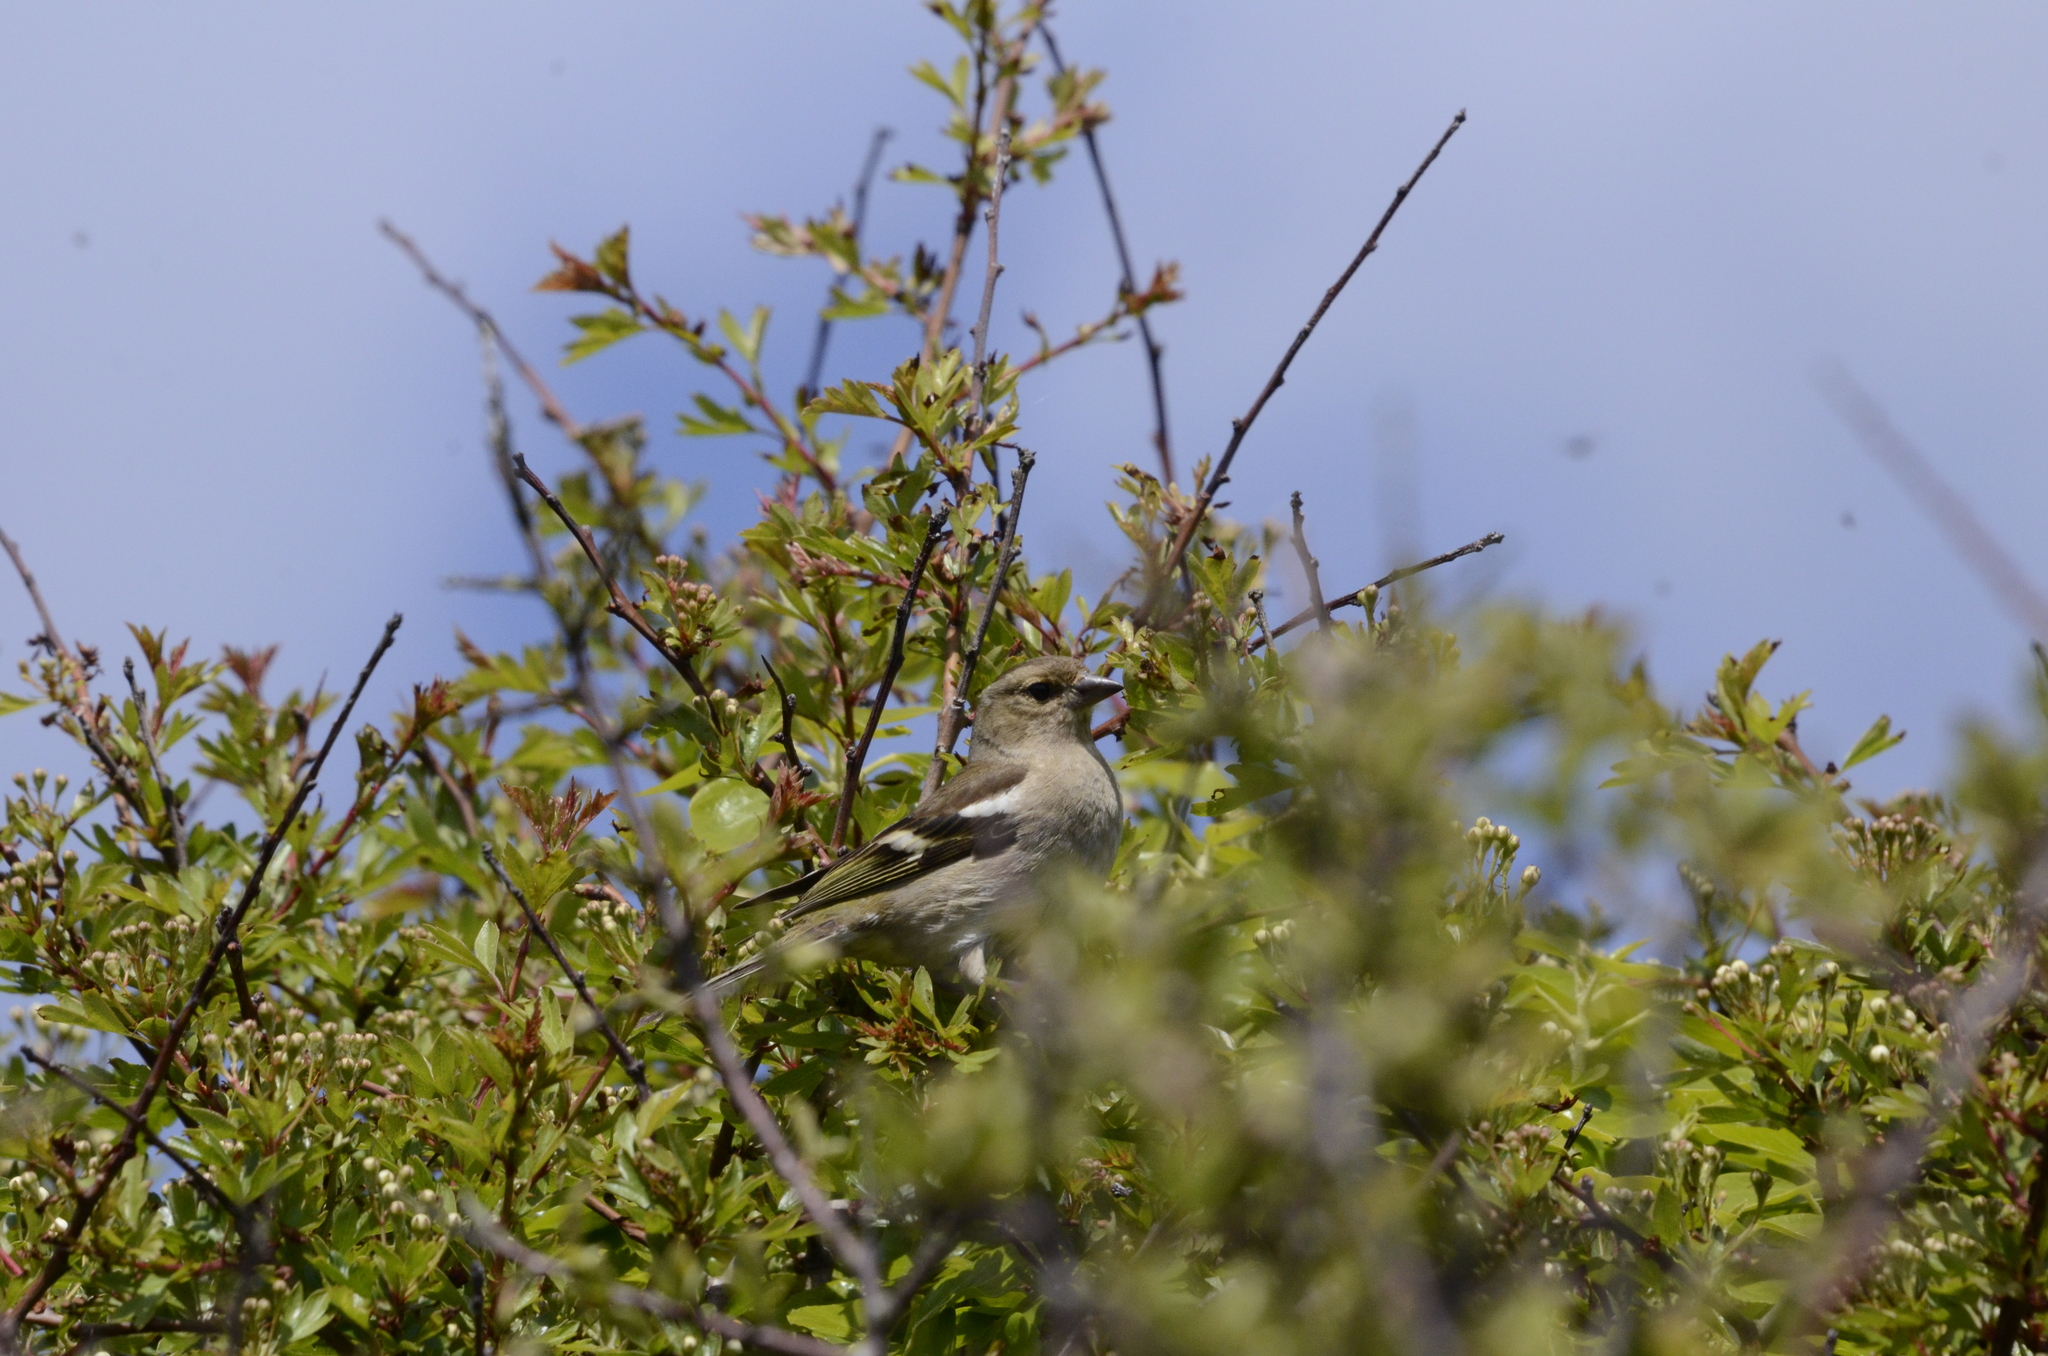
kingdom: Animalia
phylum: Chordata
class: Aves
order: Passeriformes
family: Fringillidae
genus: Fringilla
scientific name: Fringilla coelebs
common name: Common chaffinch
